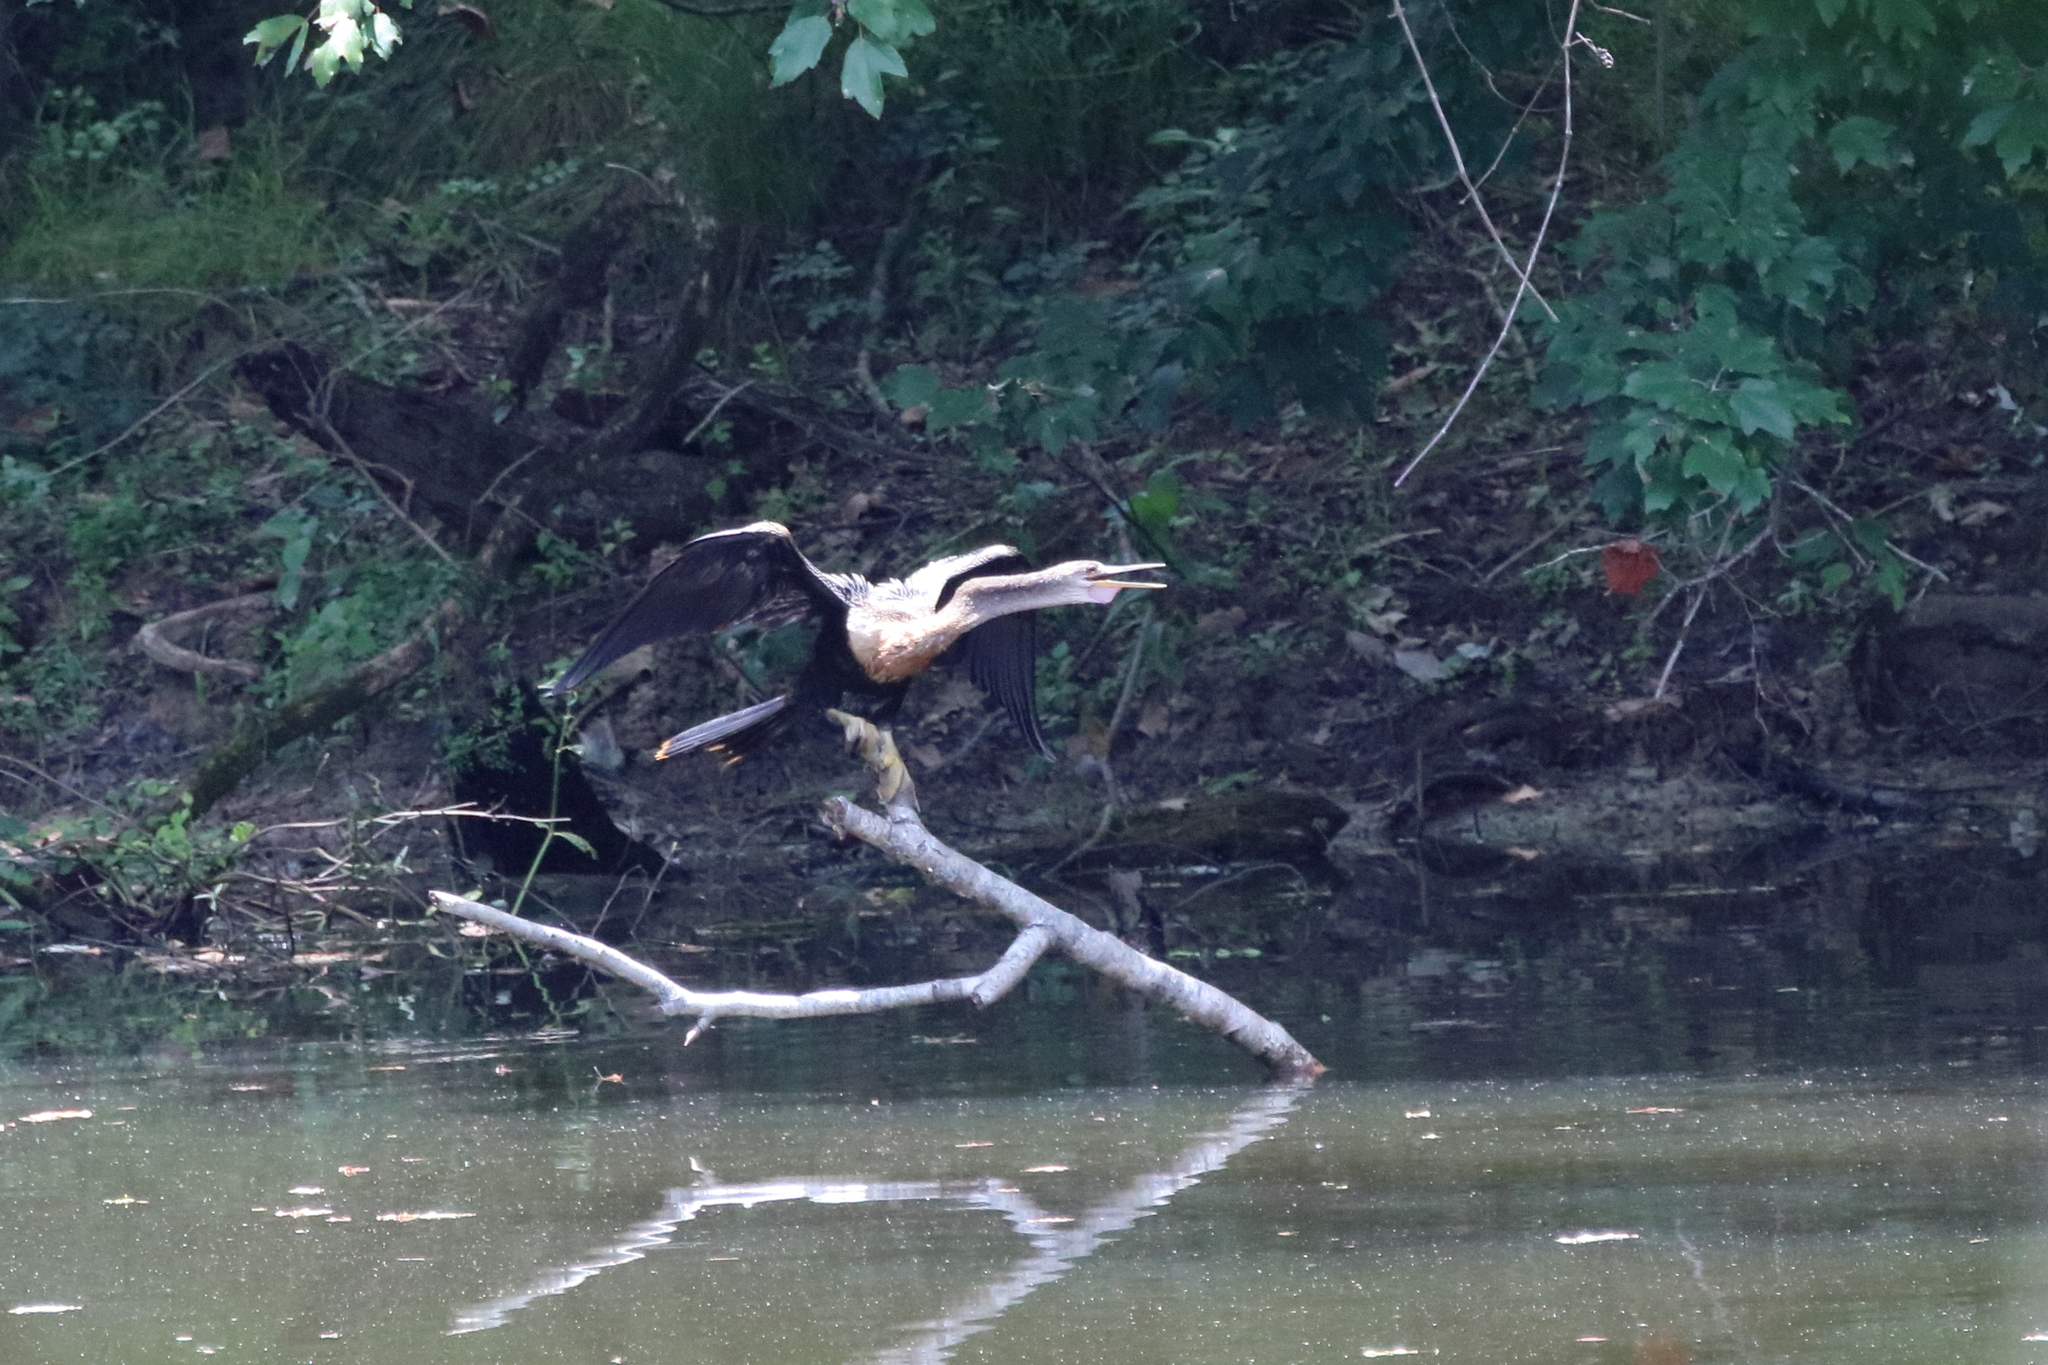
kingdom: Animalia
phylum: Chordata
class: Aves
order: Suliformes
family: Anhingidae
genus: Anhinga
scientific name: Anhinga anhinga
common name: Anhinga
